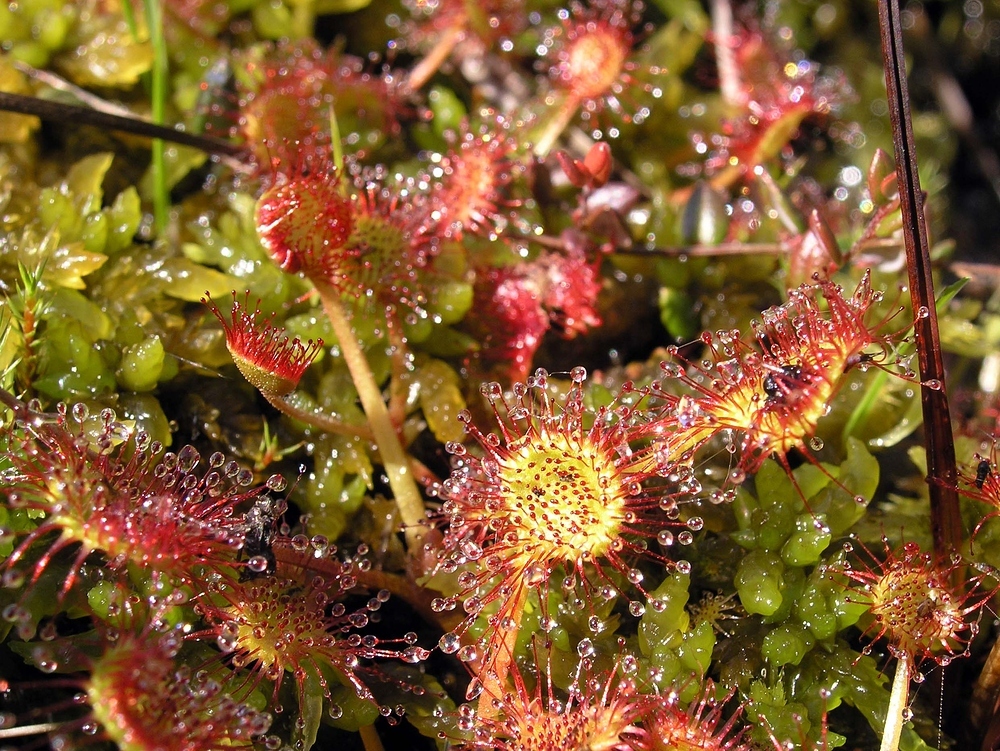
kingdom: Plantae
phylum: Tracheophyta
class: Magnoliopsida
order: Caryophyllales
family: Droseraceae
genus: Drosera
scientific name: Drosera rotundifolia
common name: Round-leaved sundew
